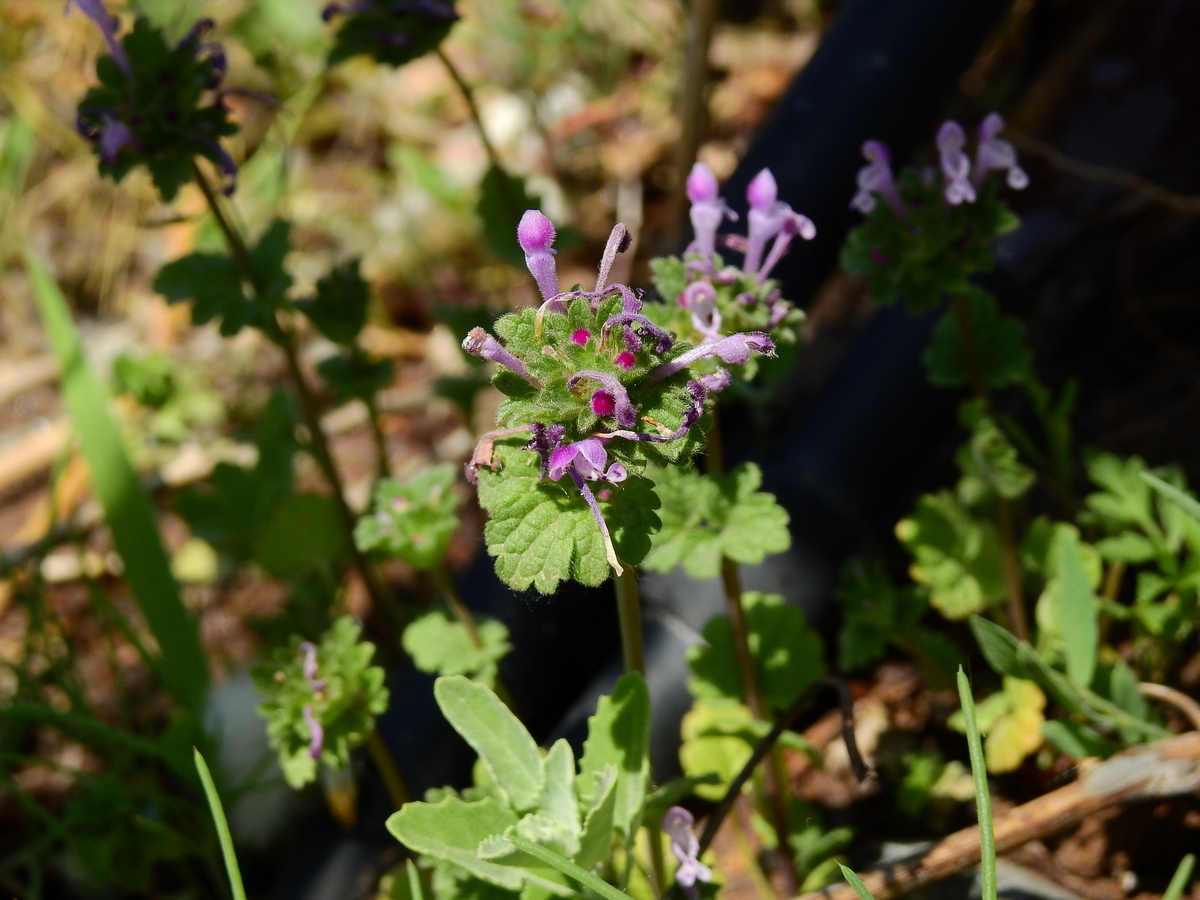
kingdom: Plantae
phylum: Tracheophyta
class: Magnoliopsida
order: Lamiales
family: Lamiaceae
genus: Lamium
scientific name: Lamium amplexicaule
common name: Henbit dead-nettle
